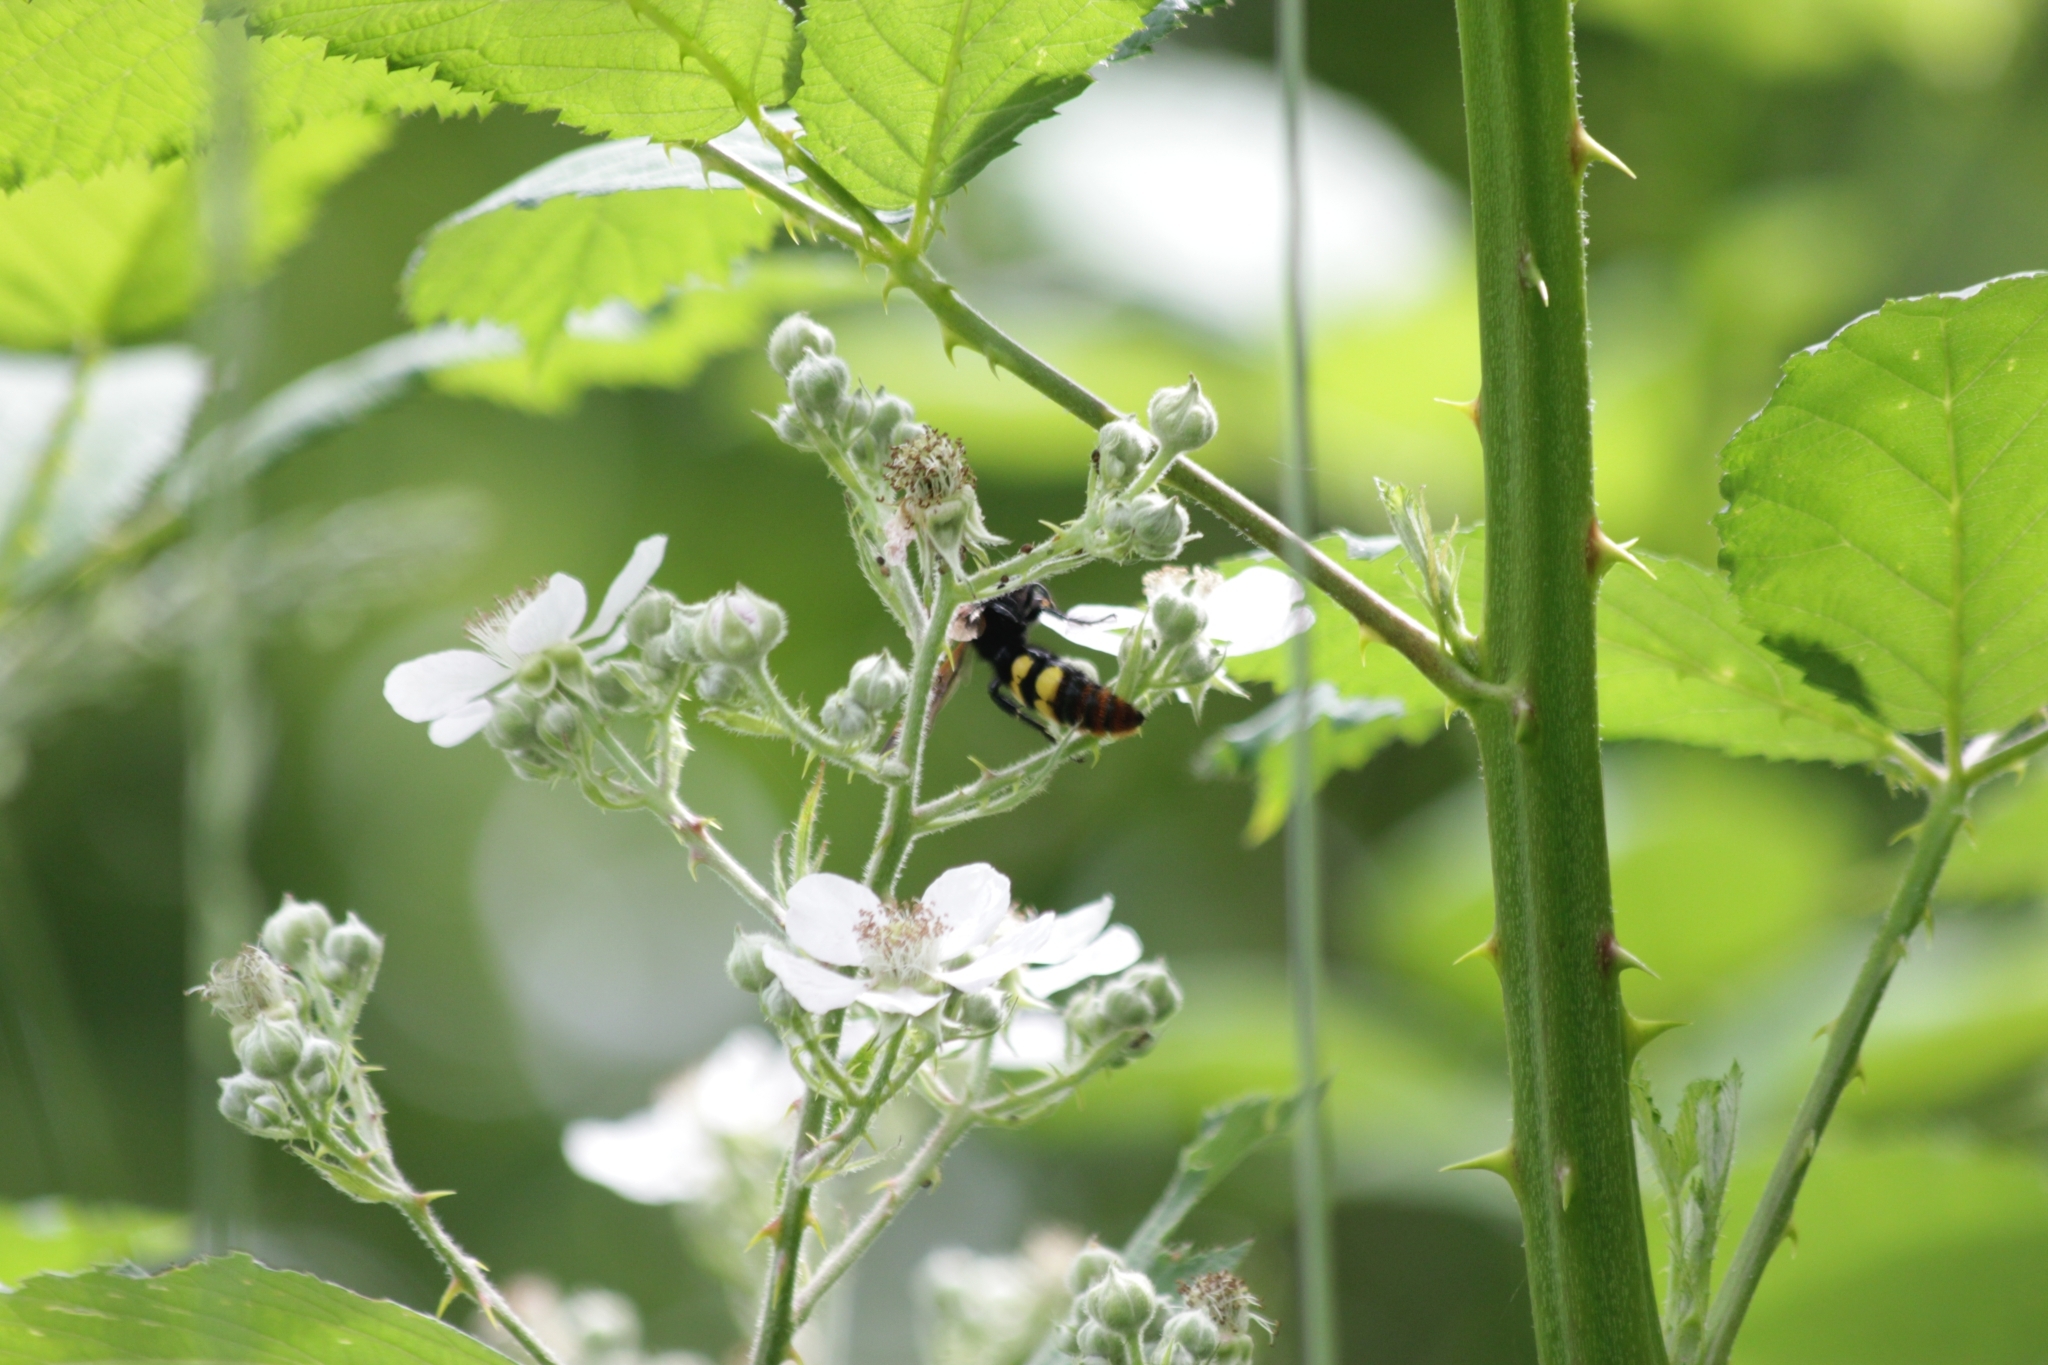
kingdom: Animalia
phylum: Arthropoda
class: Insecta
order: Hymenoptera
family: Scoliidae
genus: Megascolia
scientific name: Megascolia maculata
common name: Mammoth wasp
